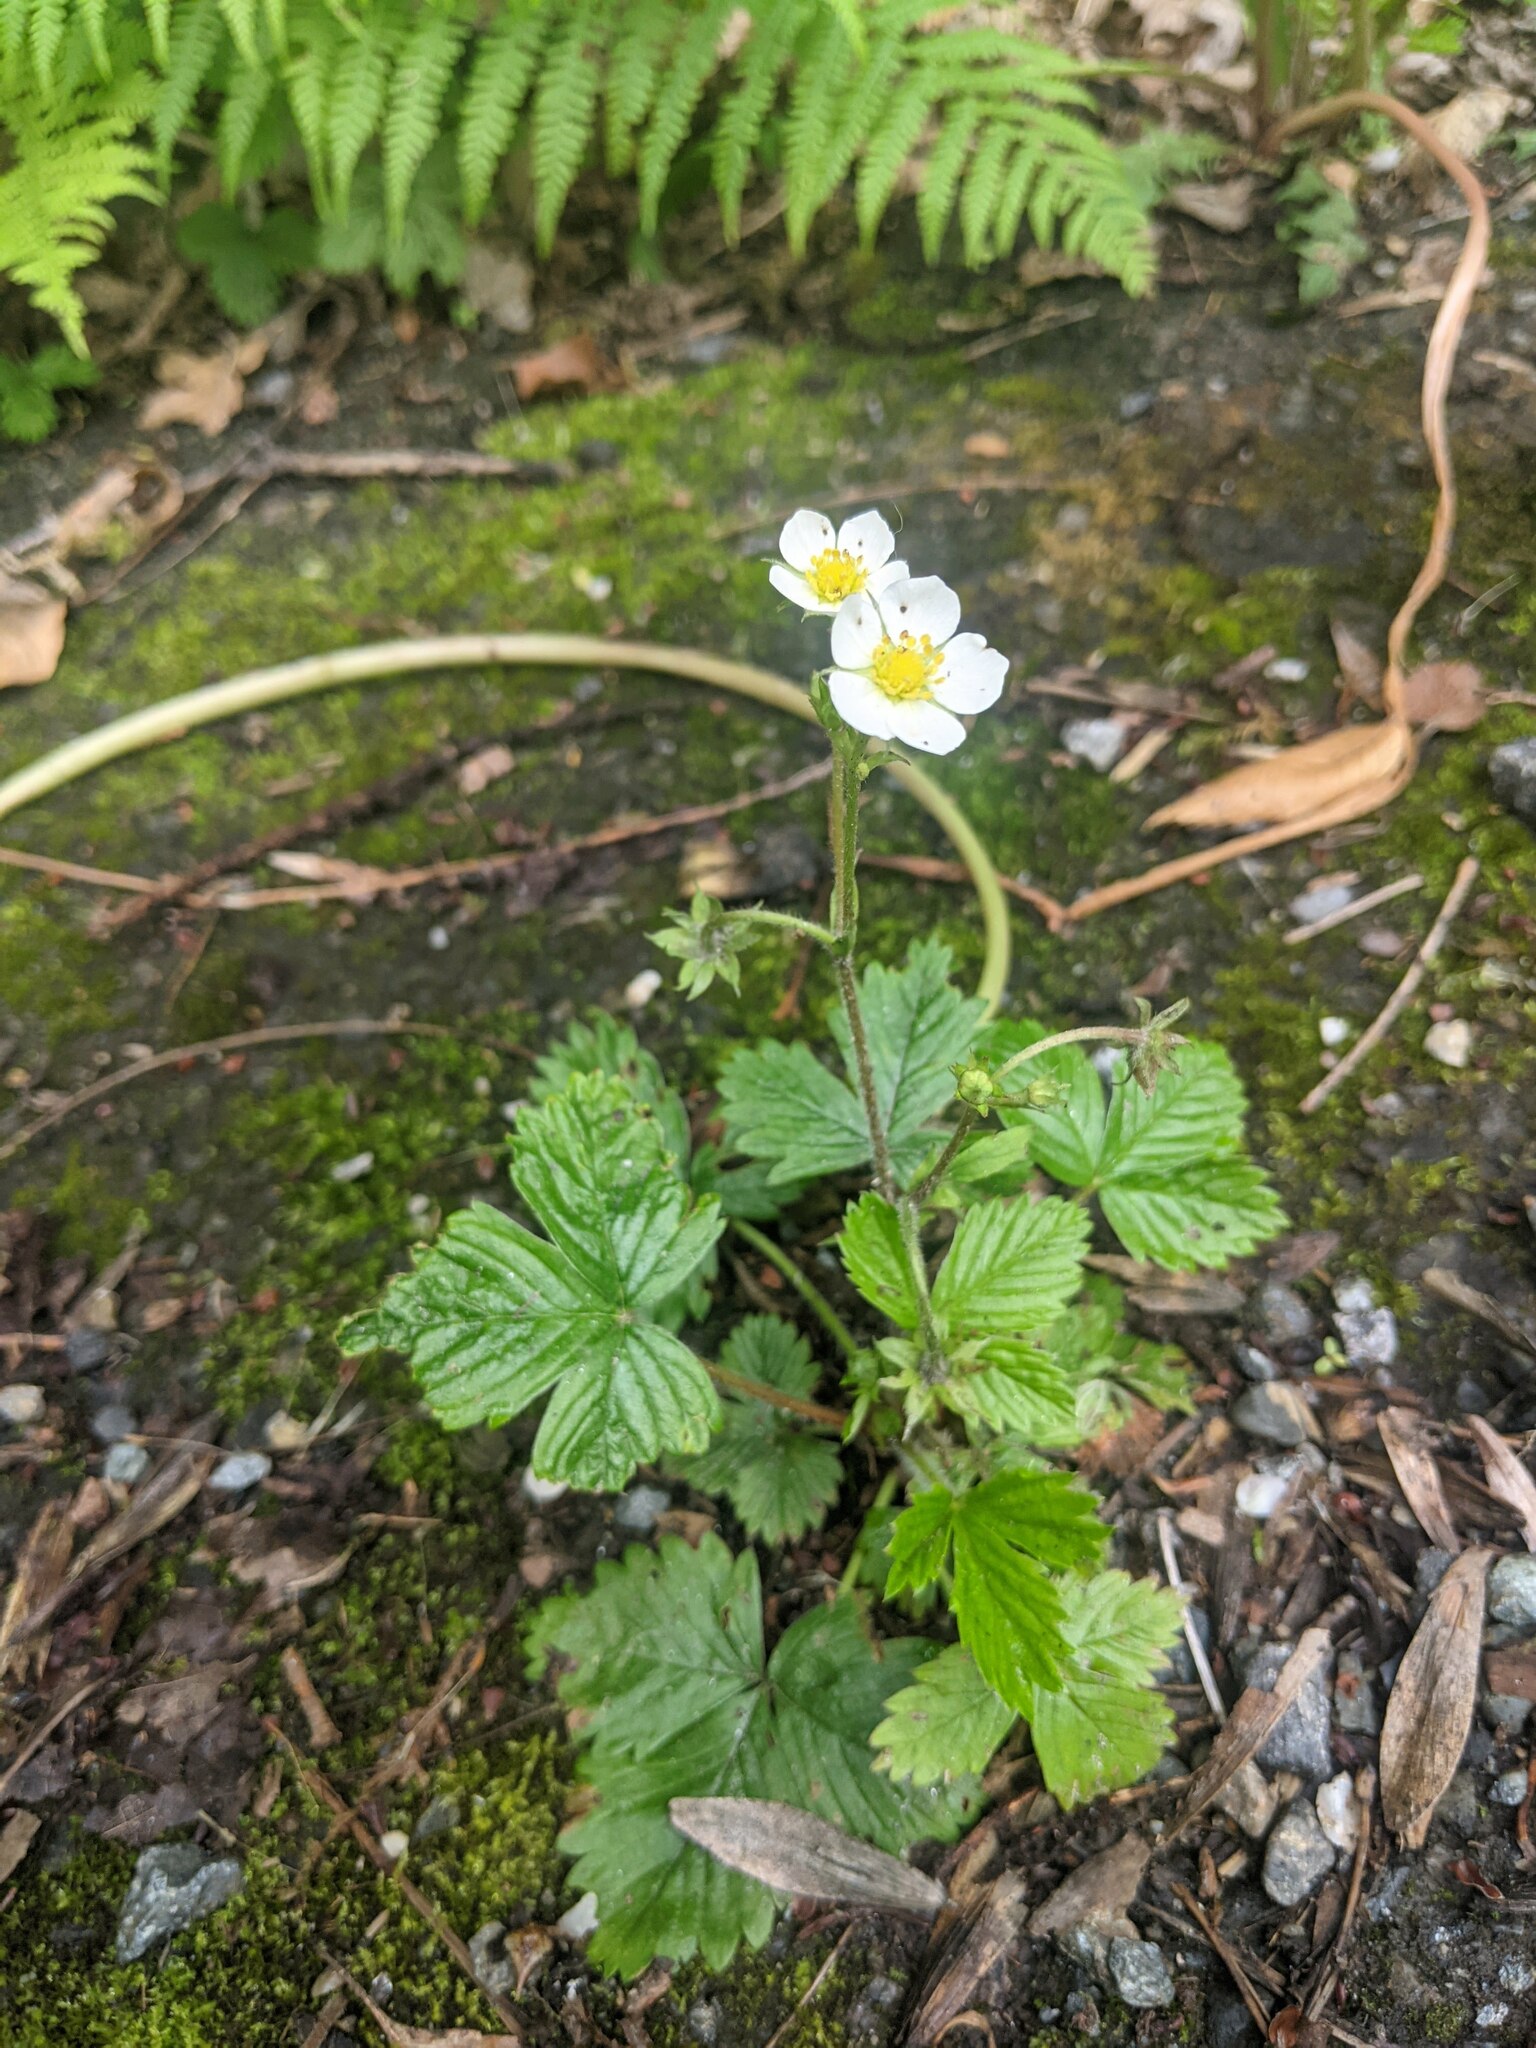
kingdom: Plantae
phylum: Tracheophyta
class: Magnoliopsida
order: Rosales
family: Rosaceae
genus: Fragaria
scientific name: Fragaria vesca
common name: Wild strawberry
